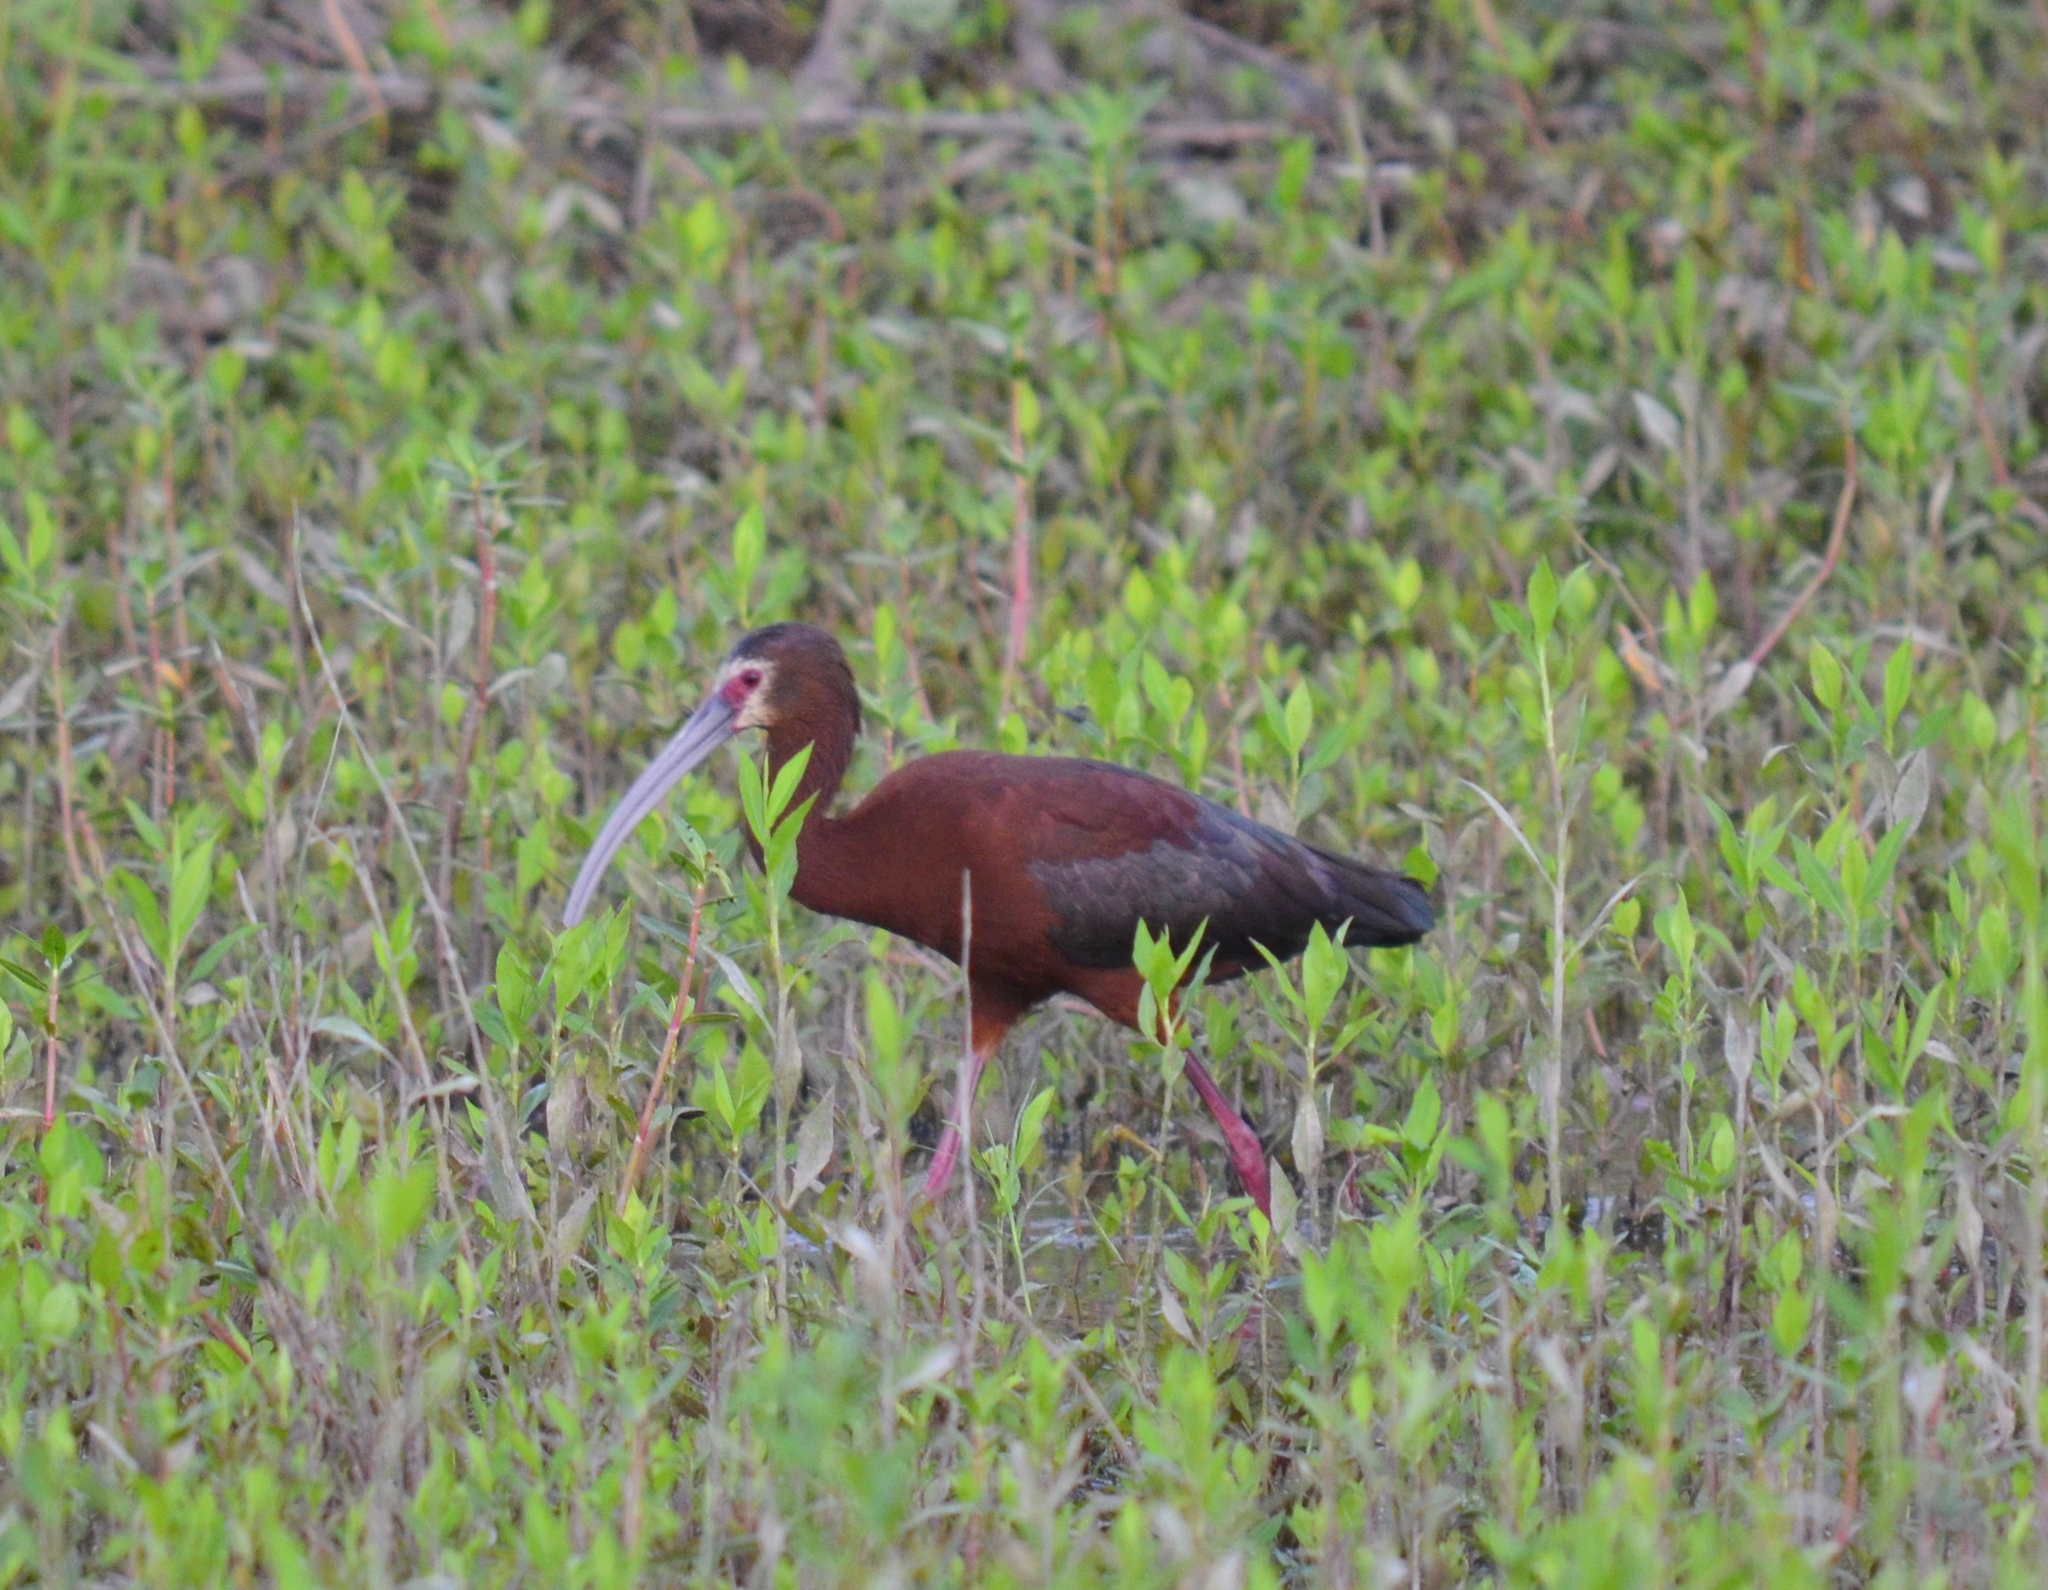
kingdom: Animalia
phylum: Chordata
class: Aves
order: Pelecaniformes
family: Threskiornithidae
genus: Plegadis
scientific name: Plegadis chihi
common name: White-faced ibis
